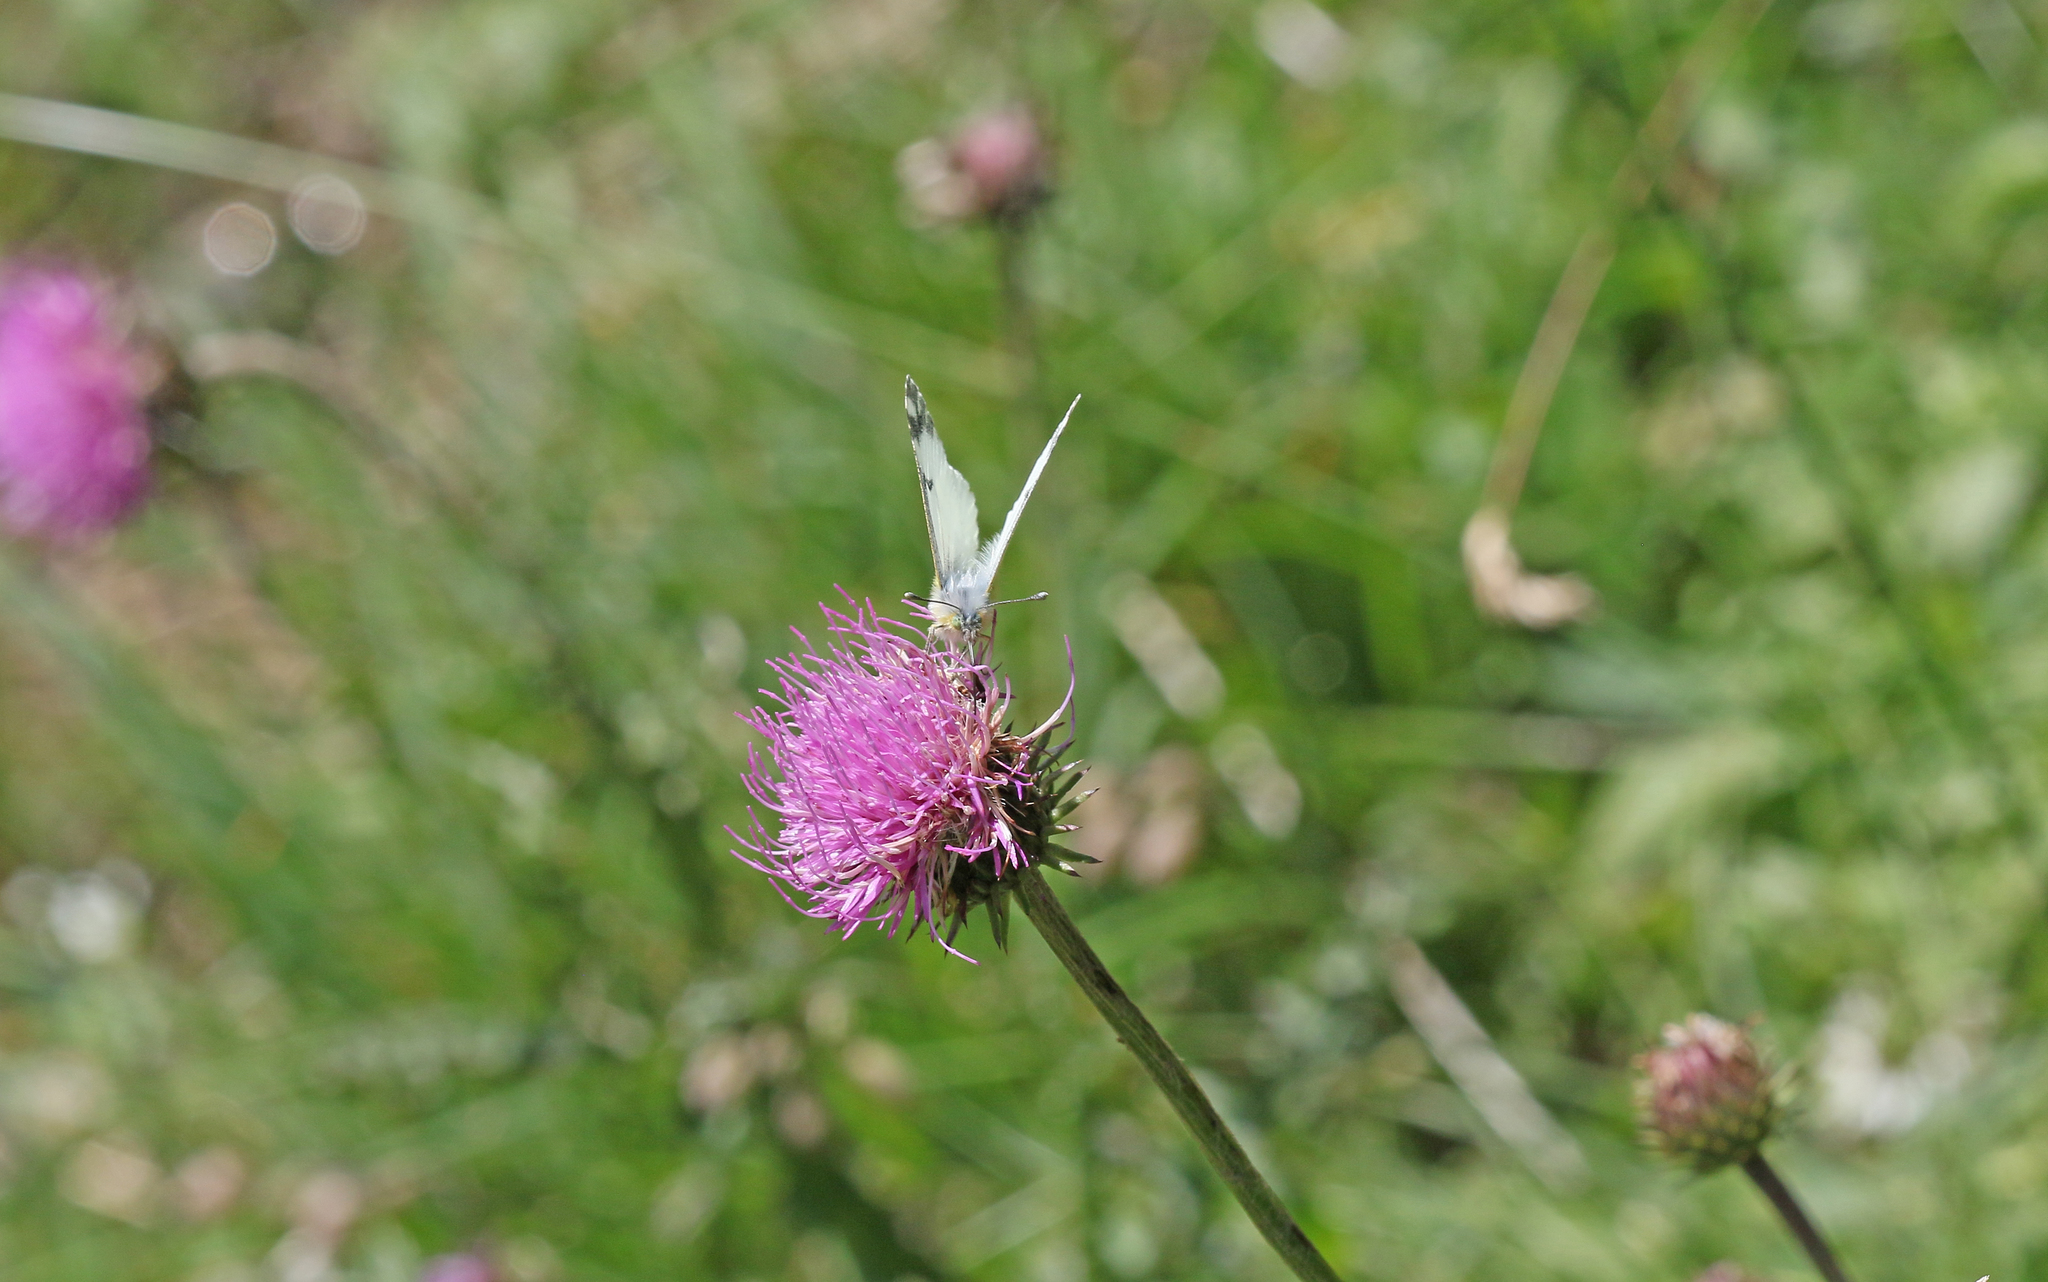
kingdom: Animalia
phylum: Arthropoda
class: Insecta
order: Lepidoptera
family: Pieridae
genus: Euchloe
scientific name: Euchloe simplonia
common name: Mountain dappled white
